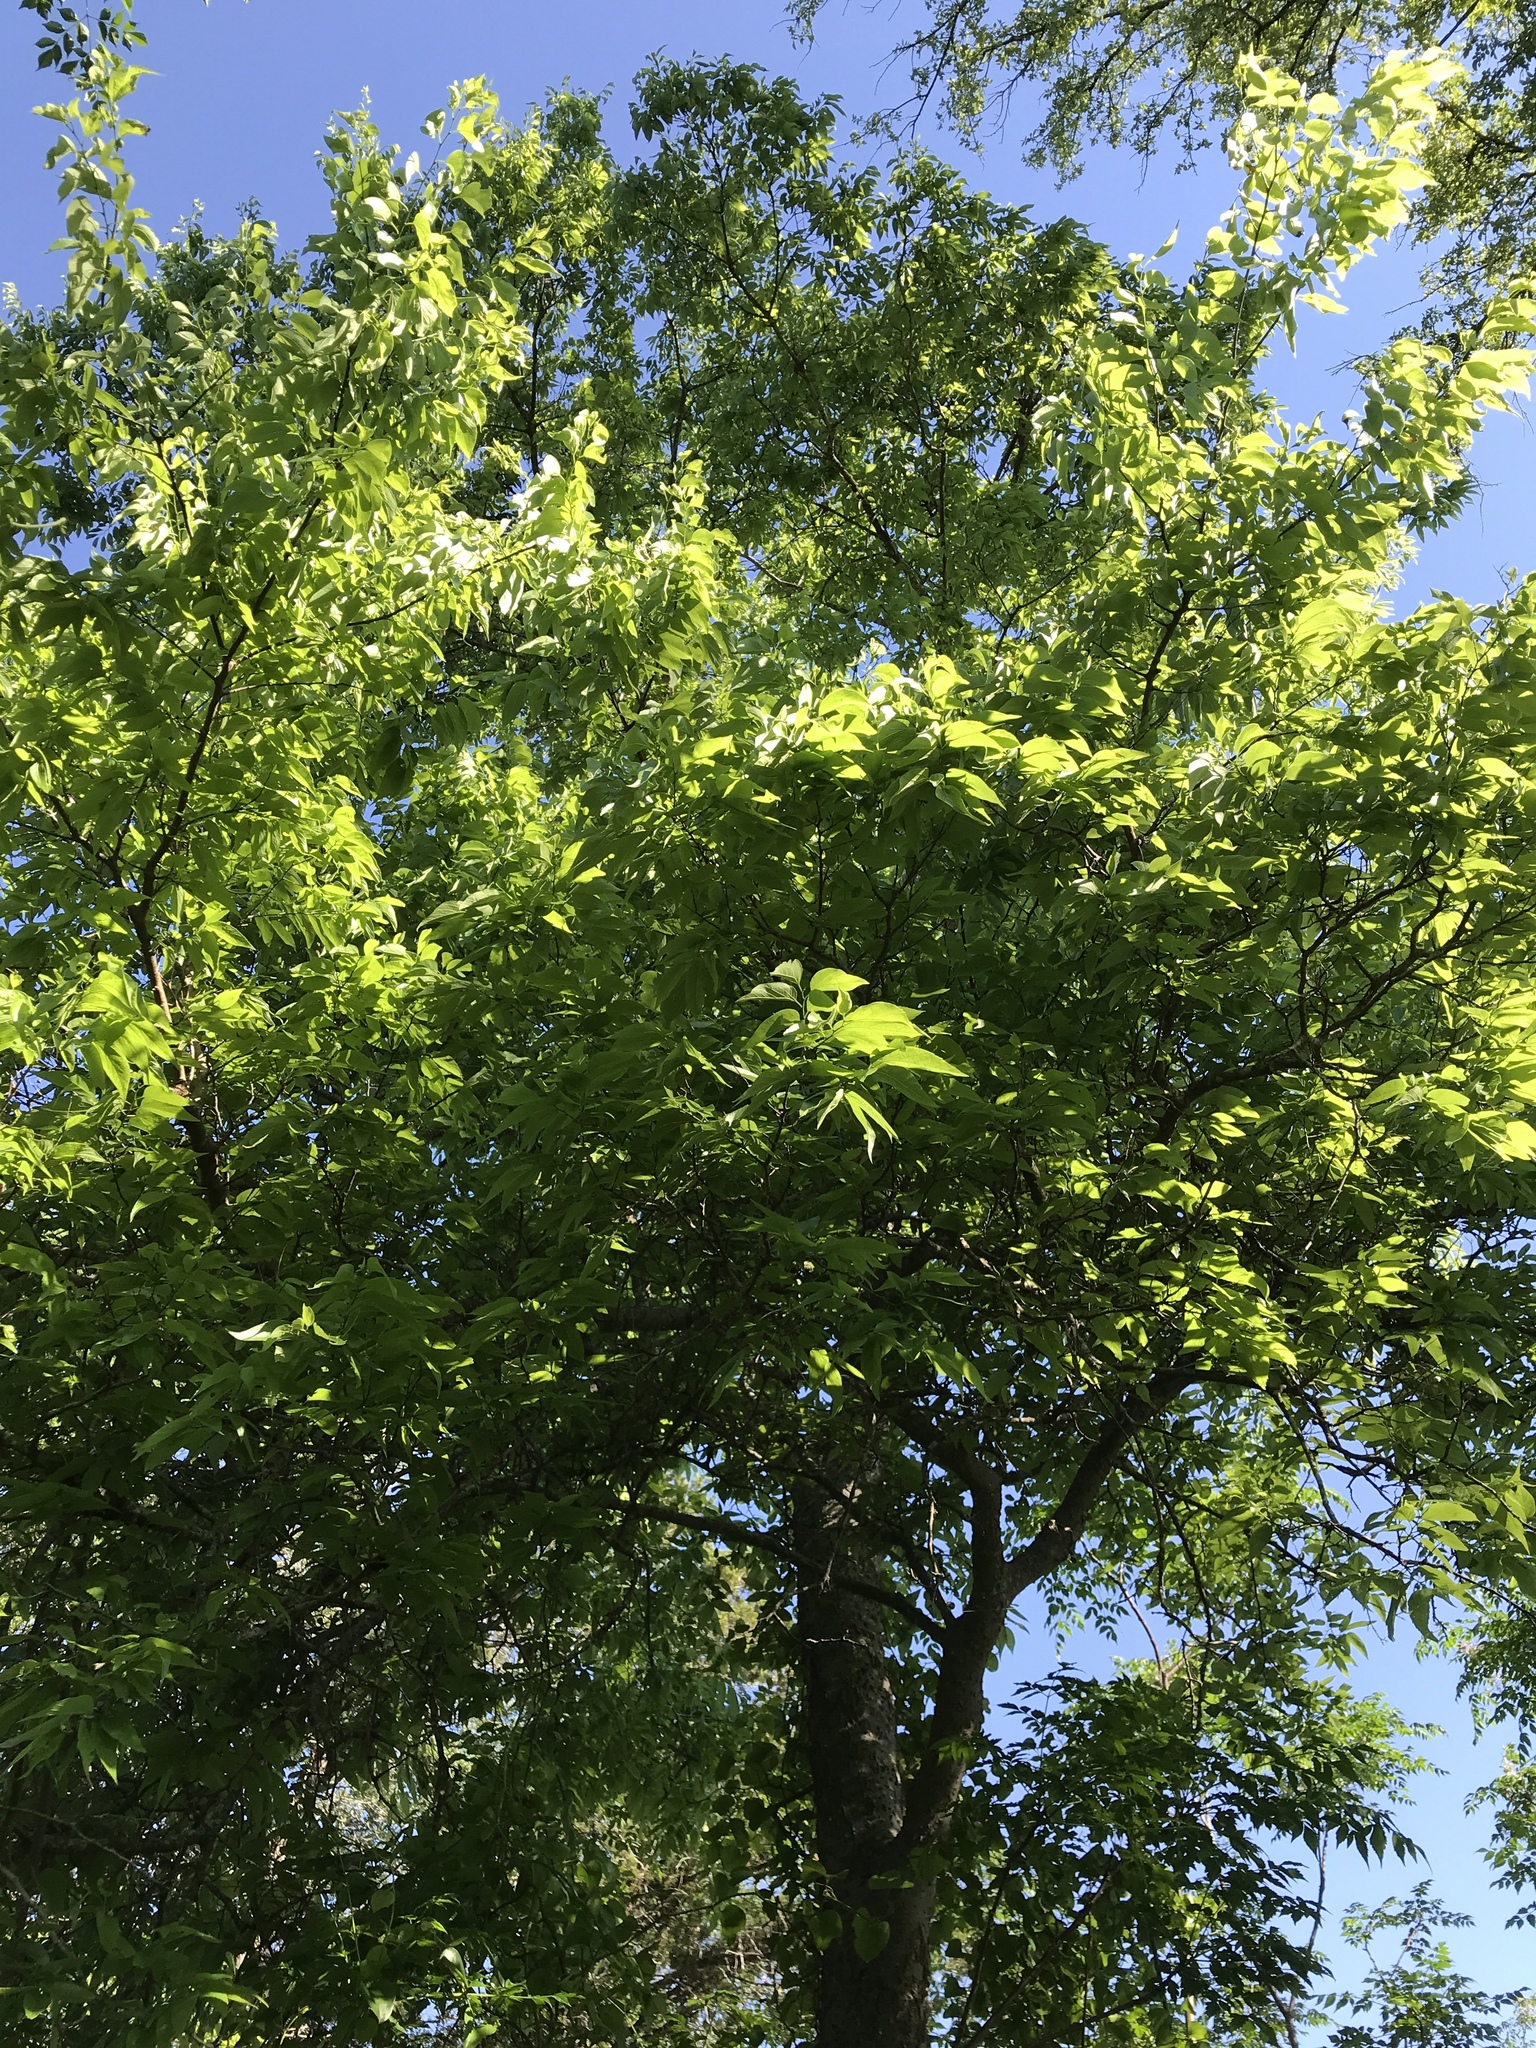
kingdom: Plantae
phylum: Tracheophyta
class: Magnoliopsida
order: Rosales
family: Cannabaceae
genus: Celtis
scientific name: Celtis laevigata
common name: Sugarberry
